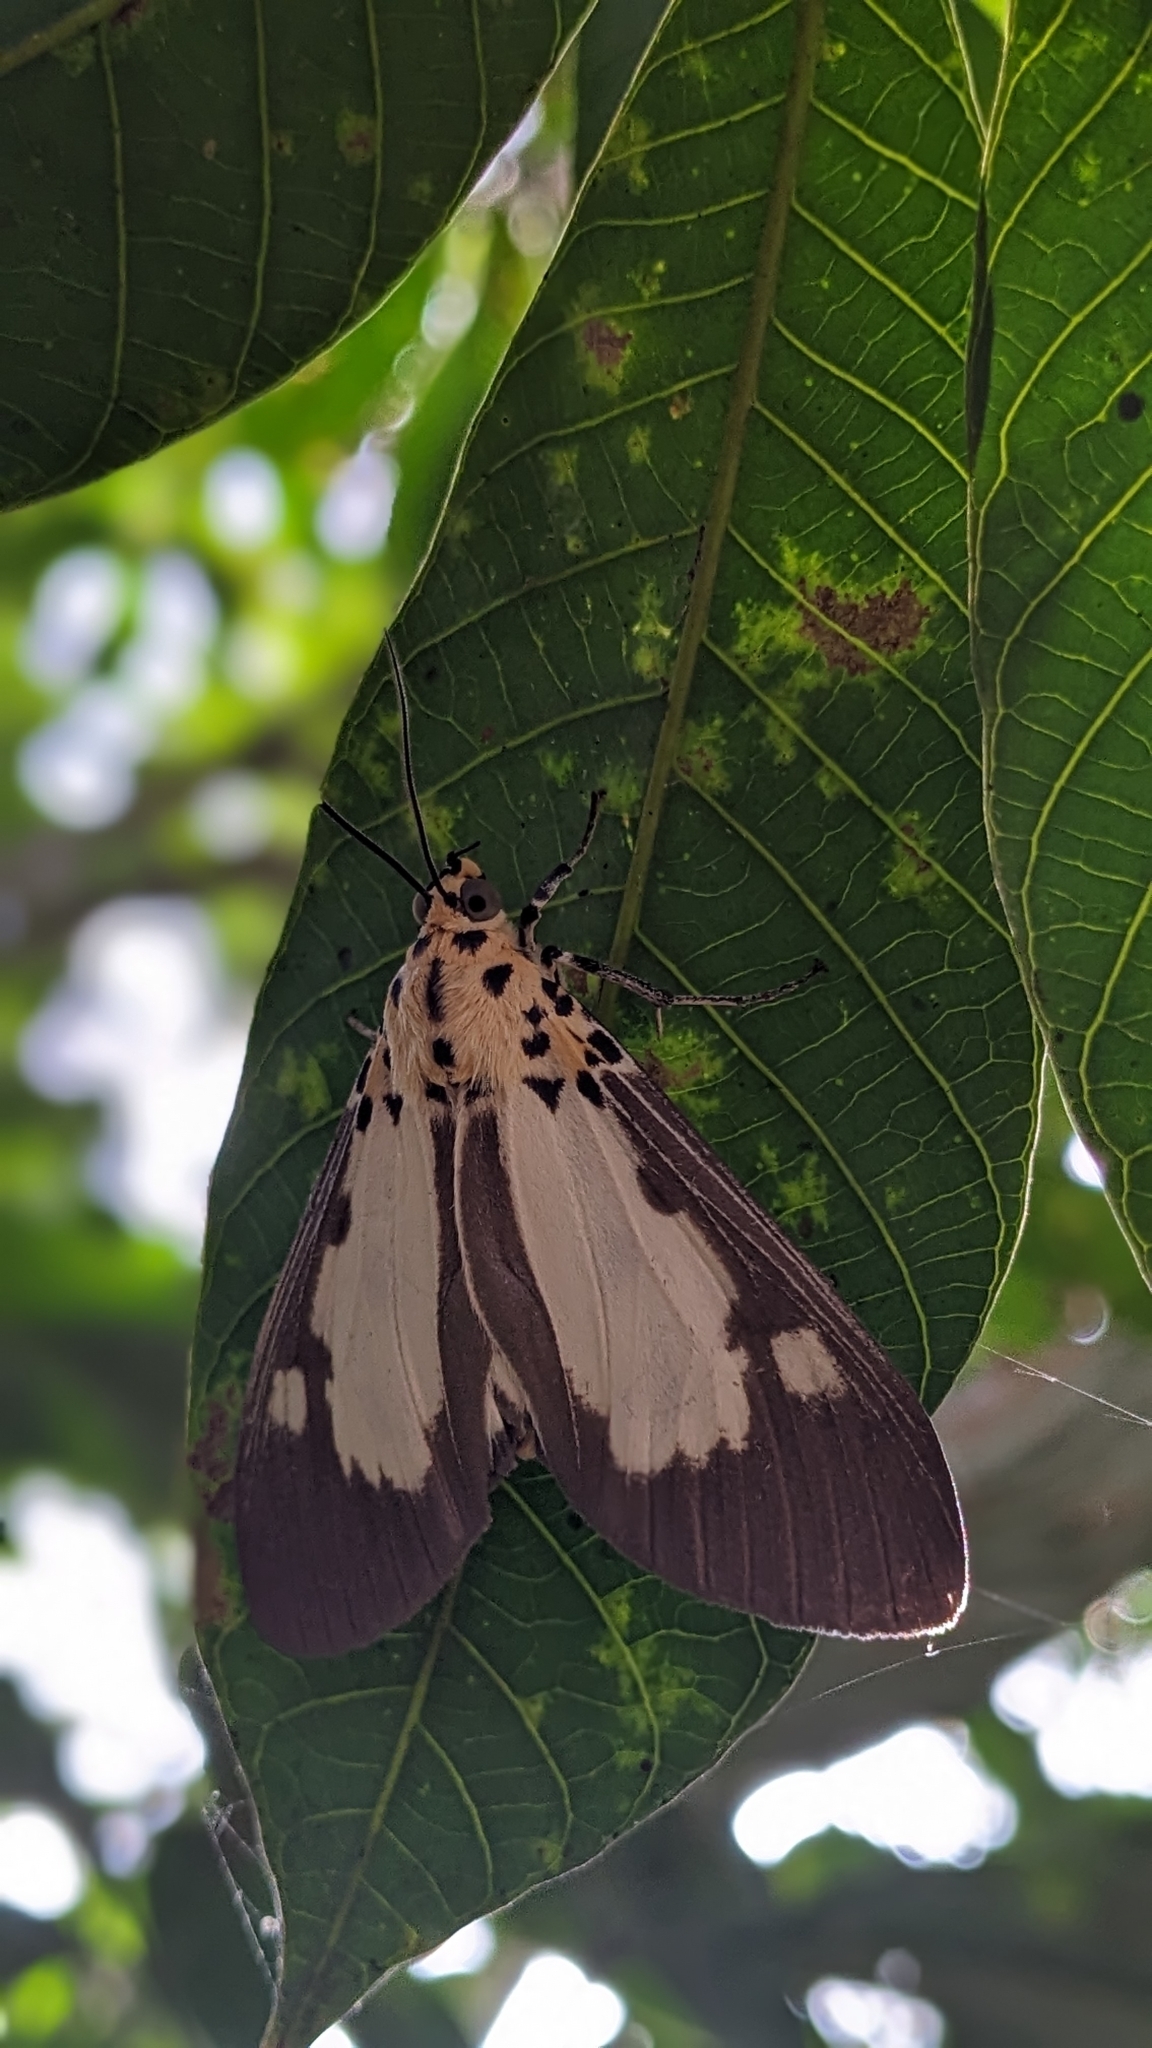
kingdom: Animalia
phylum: Arthropoda
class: Insecta
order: Lepidoptera
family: Erebidae
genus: Asota
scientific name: Asota plana
